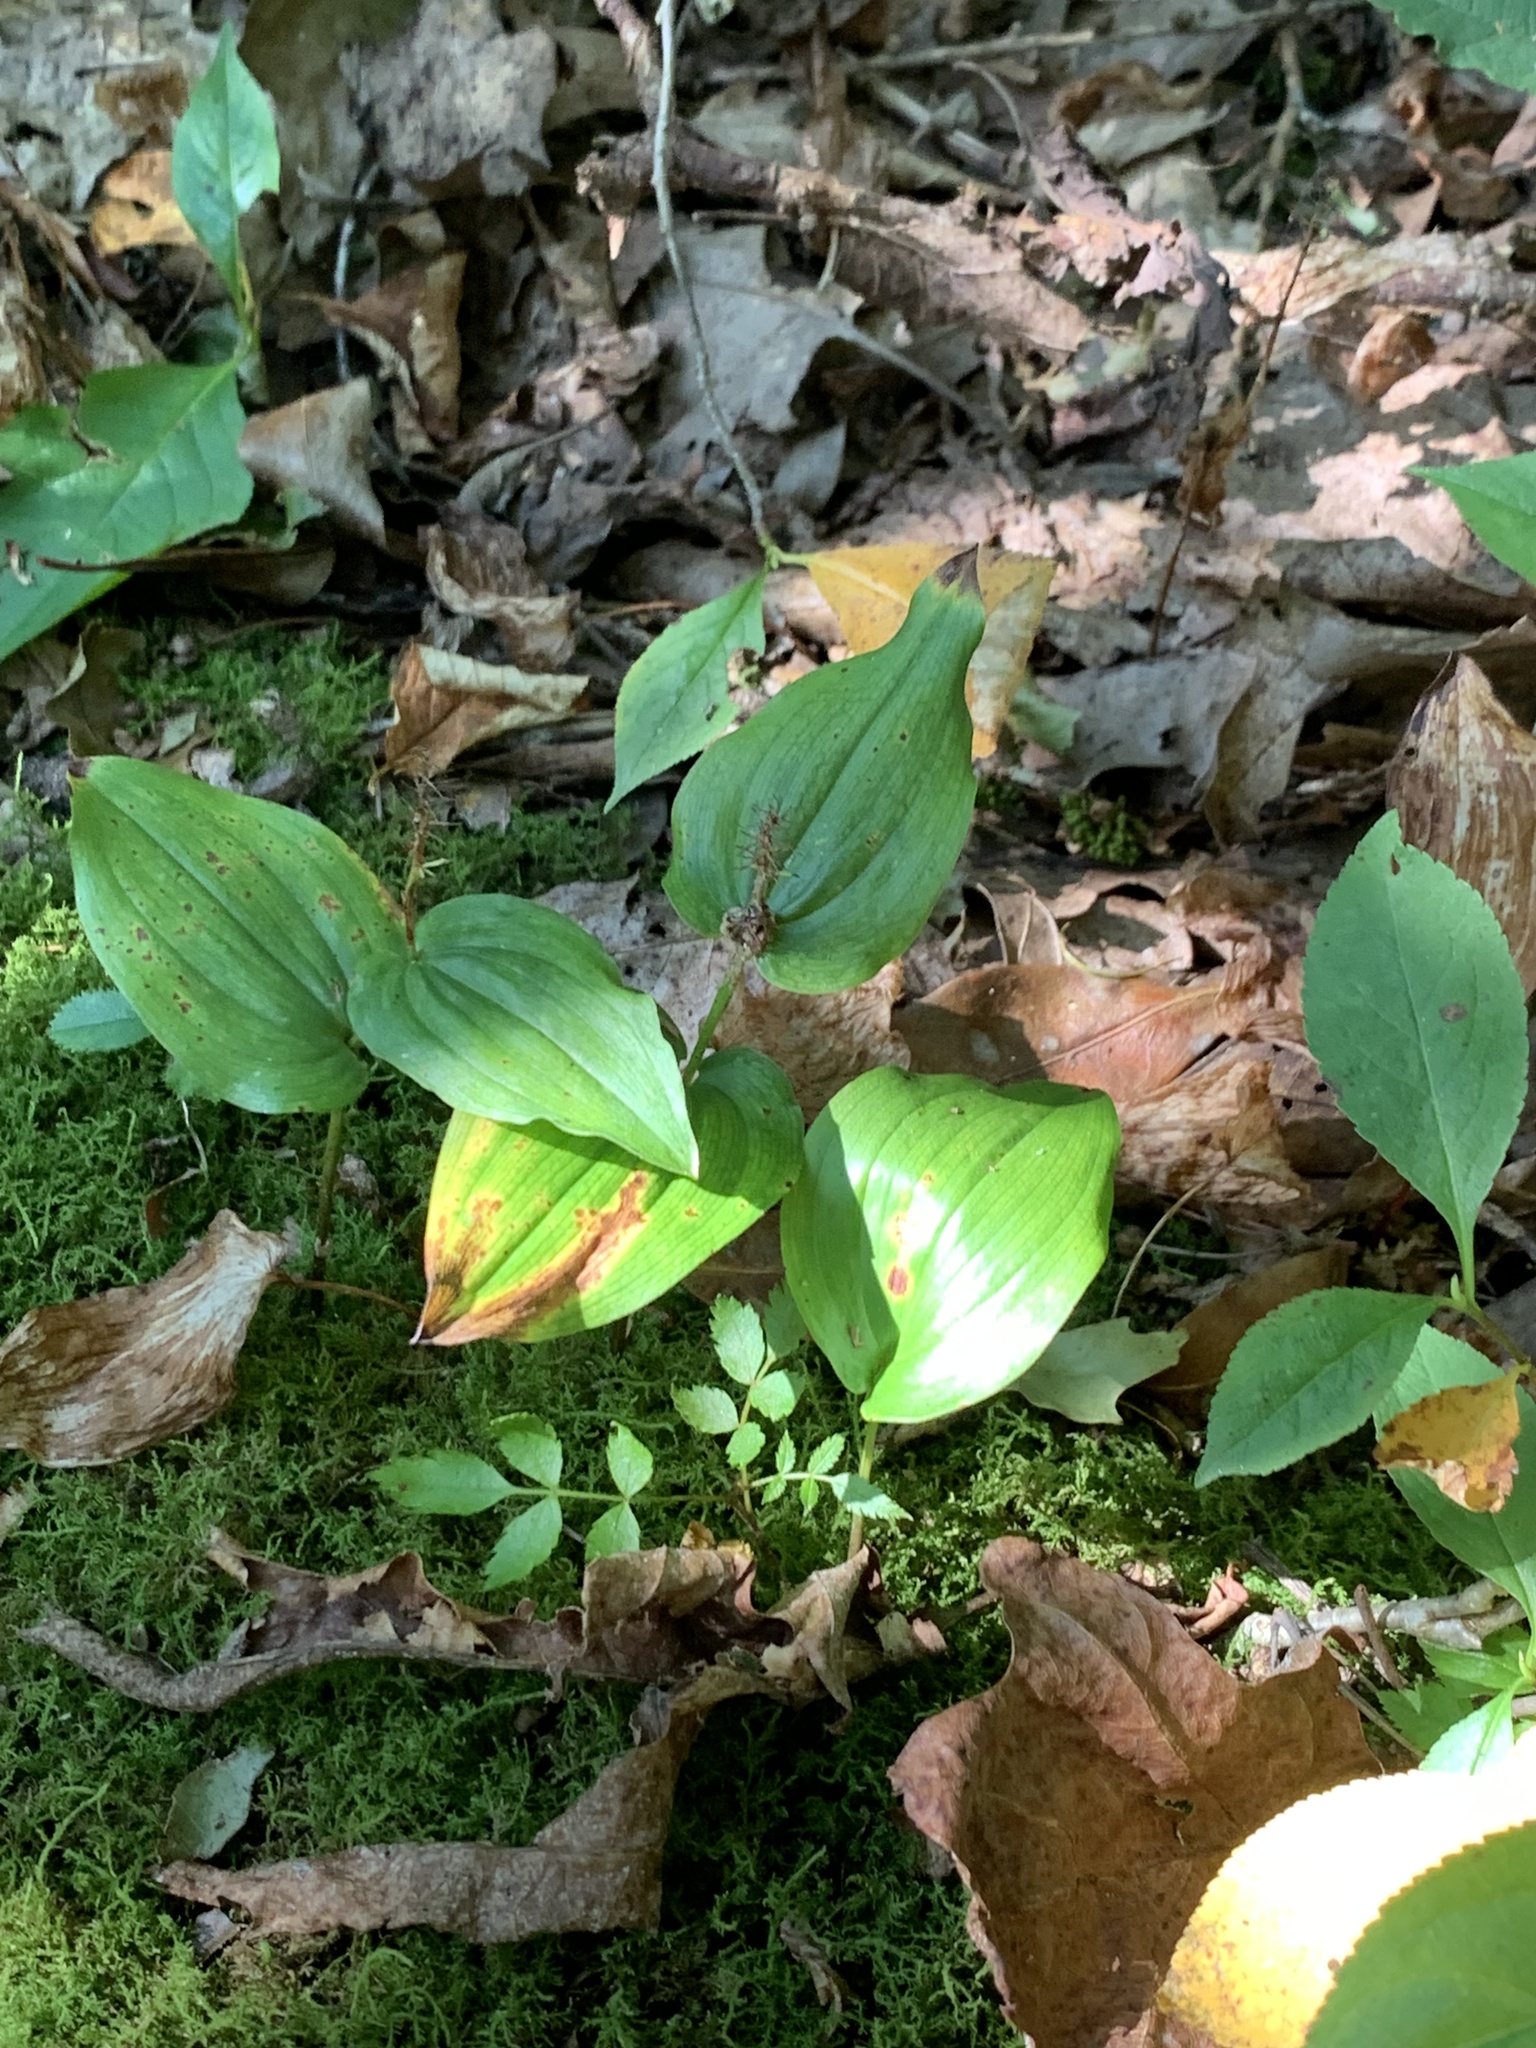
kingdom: Plantae
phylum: Tracheophyta
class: Liliopsida
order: Asparagales
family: Asparagaceae
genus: Maianthemum
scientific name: Maianthemum canadense
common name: False lily-of-the-valley
